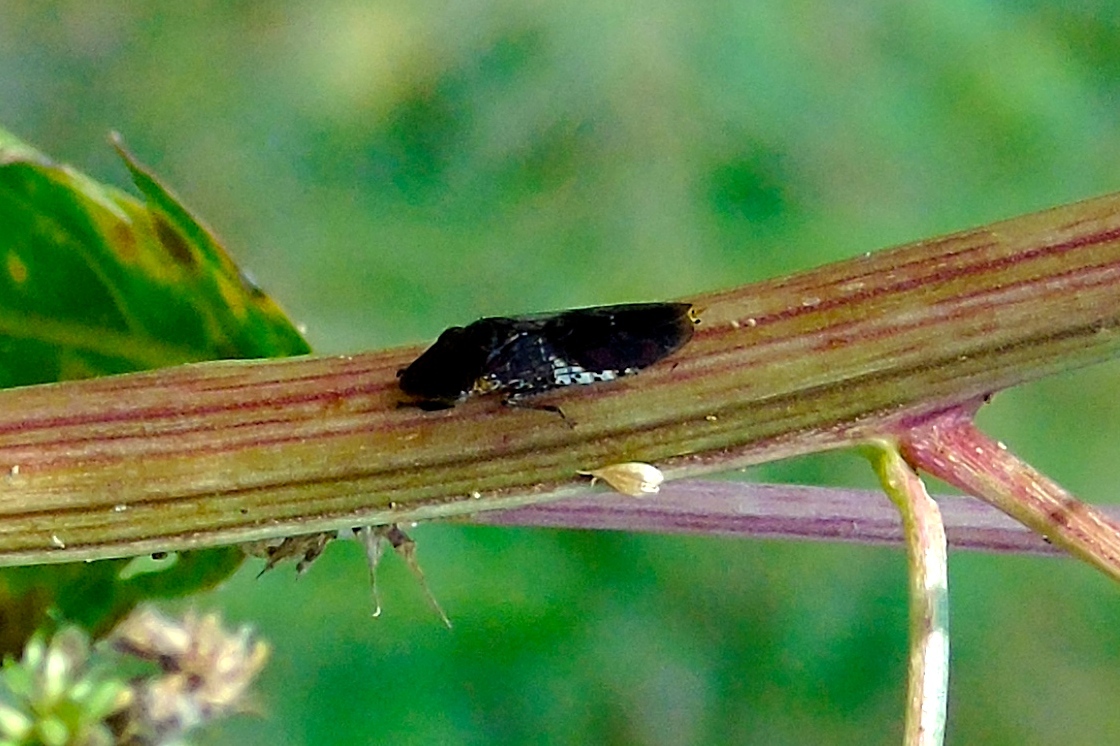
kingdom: Animalia
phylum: Arthropoda
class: Insecta
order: Hemiptera
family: Cicadellidae
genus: Homalodisca
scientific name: Homalodisca ichthyocephala
